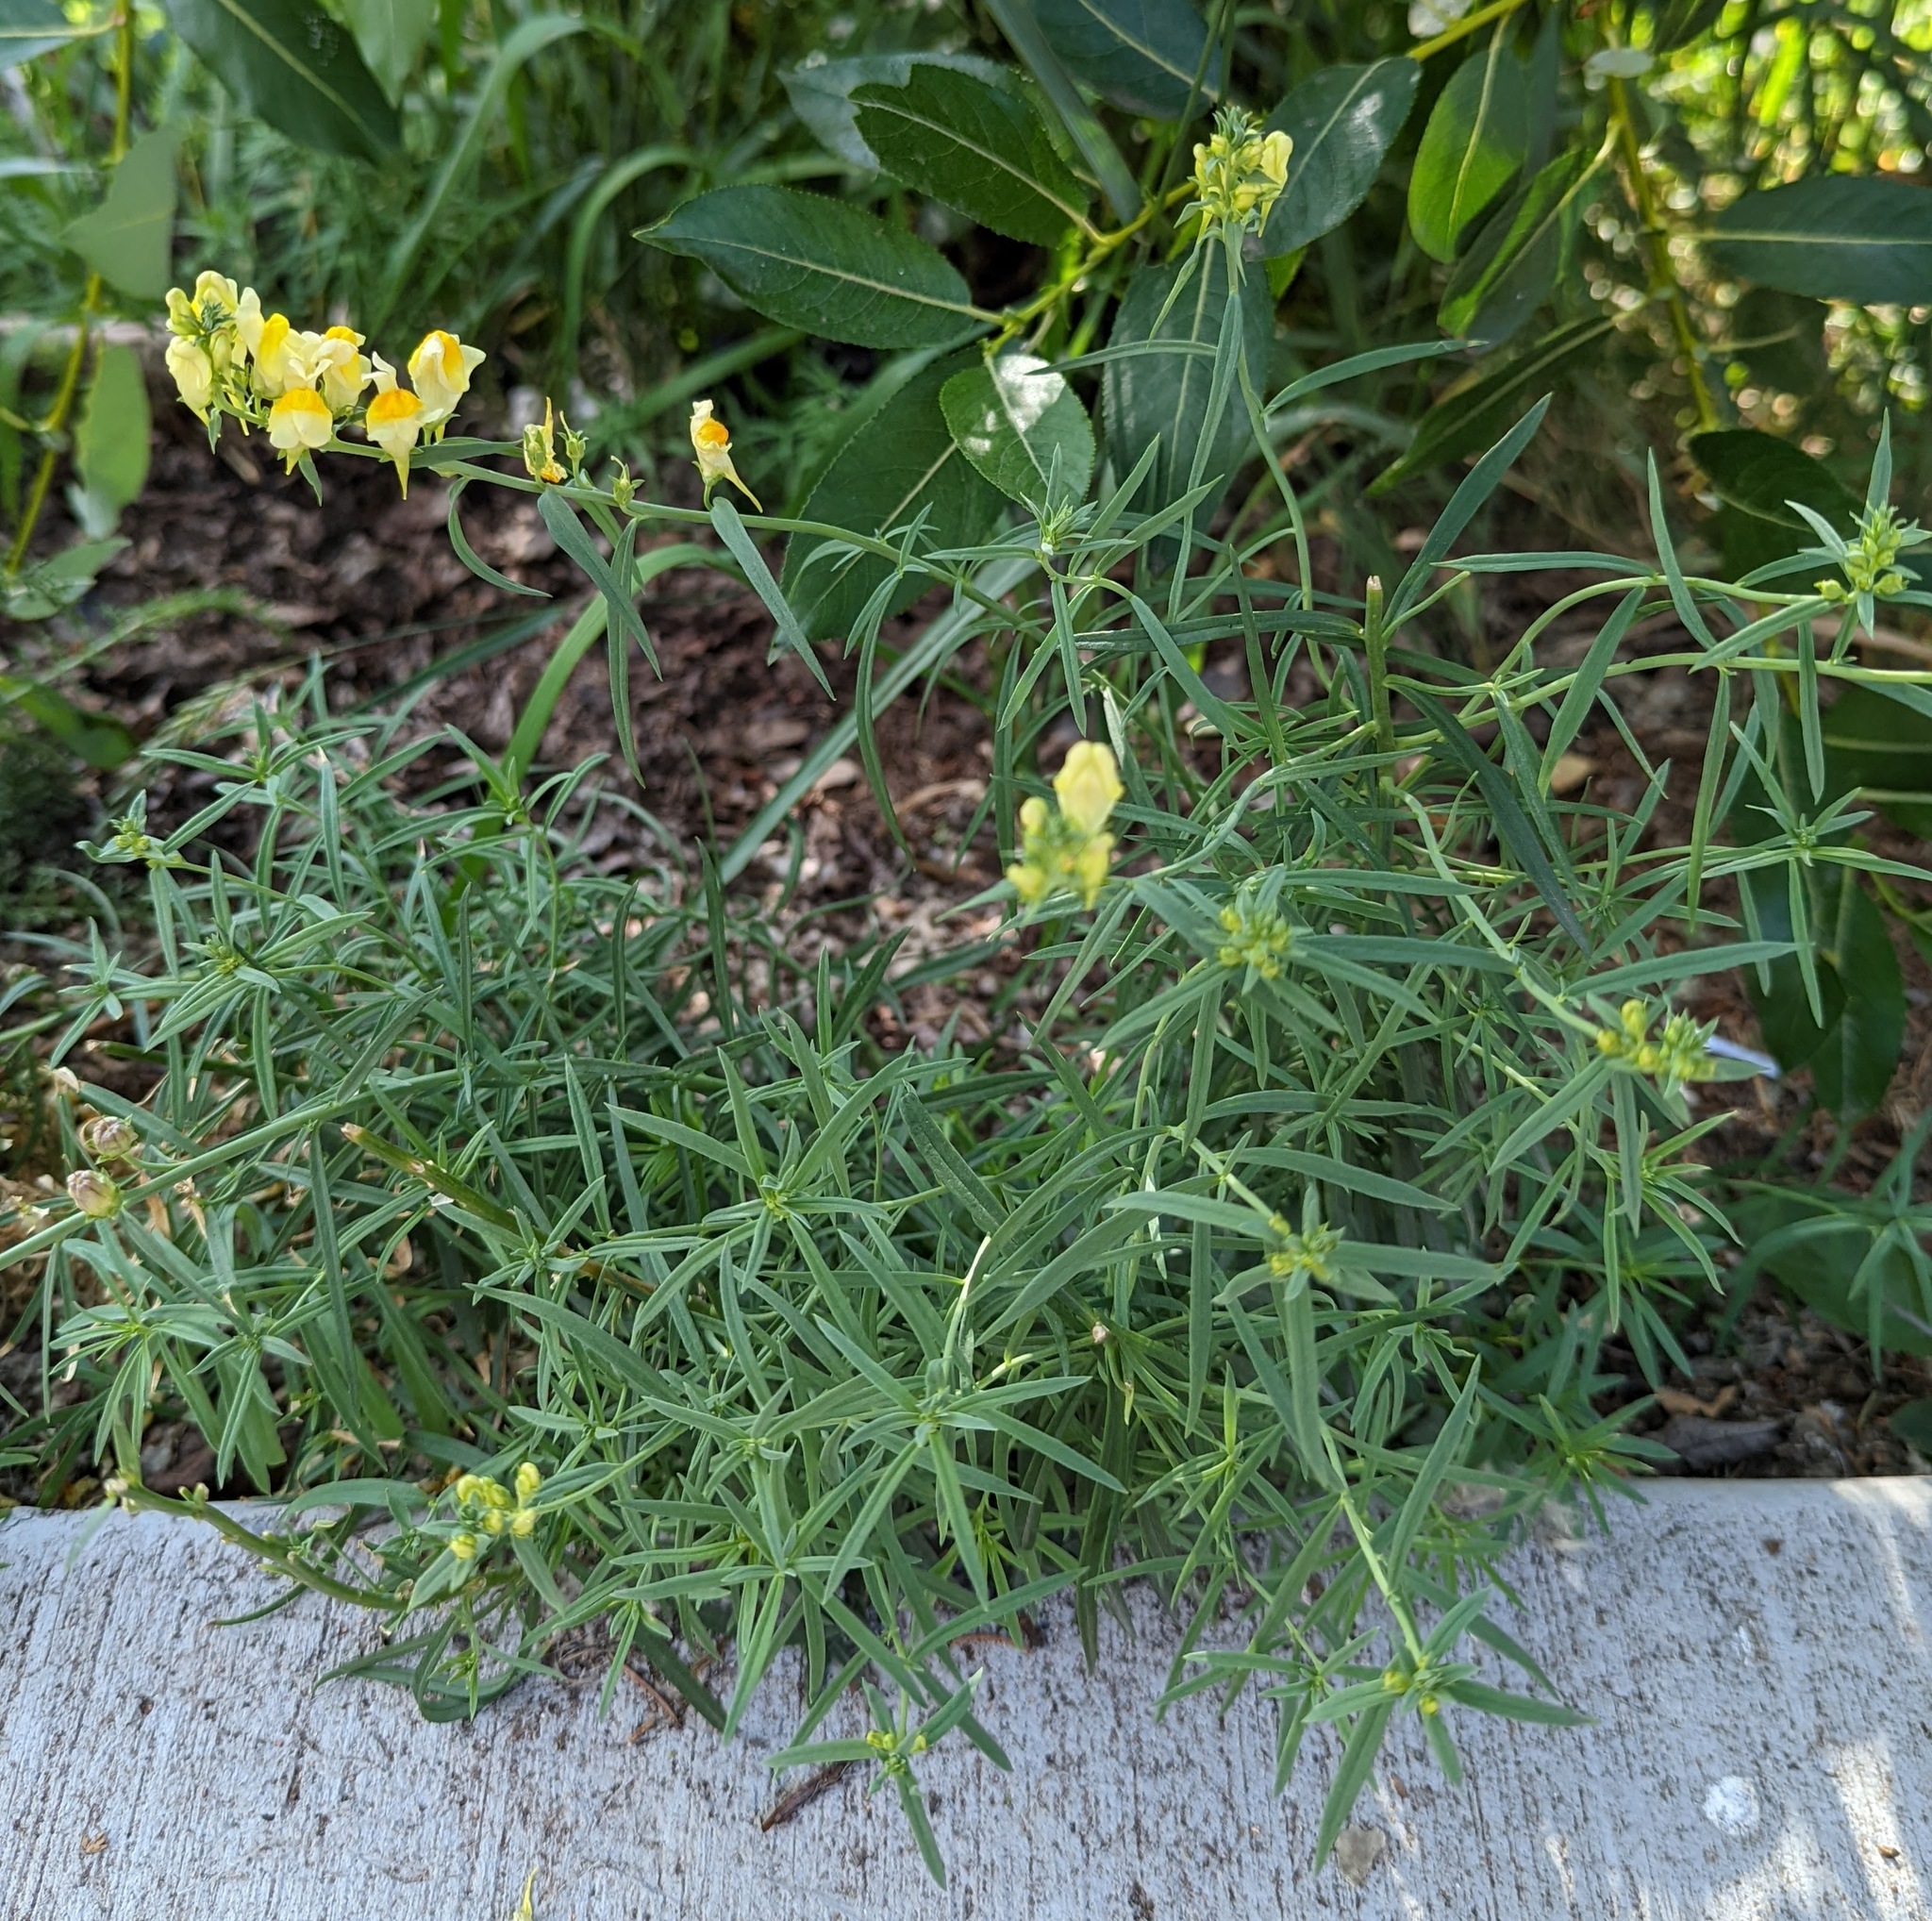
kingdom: Plantae
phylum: Tracheophyta
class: Magnoliopsida
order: Lamiales
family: Plantaginaceae
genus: Linaria
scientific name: Linaria vulgaris
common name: Butter and eggs
